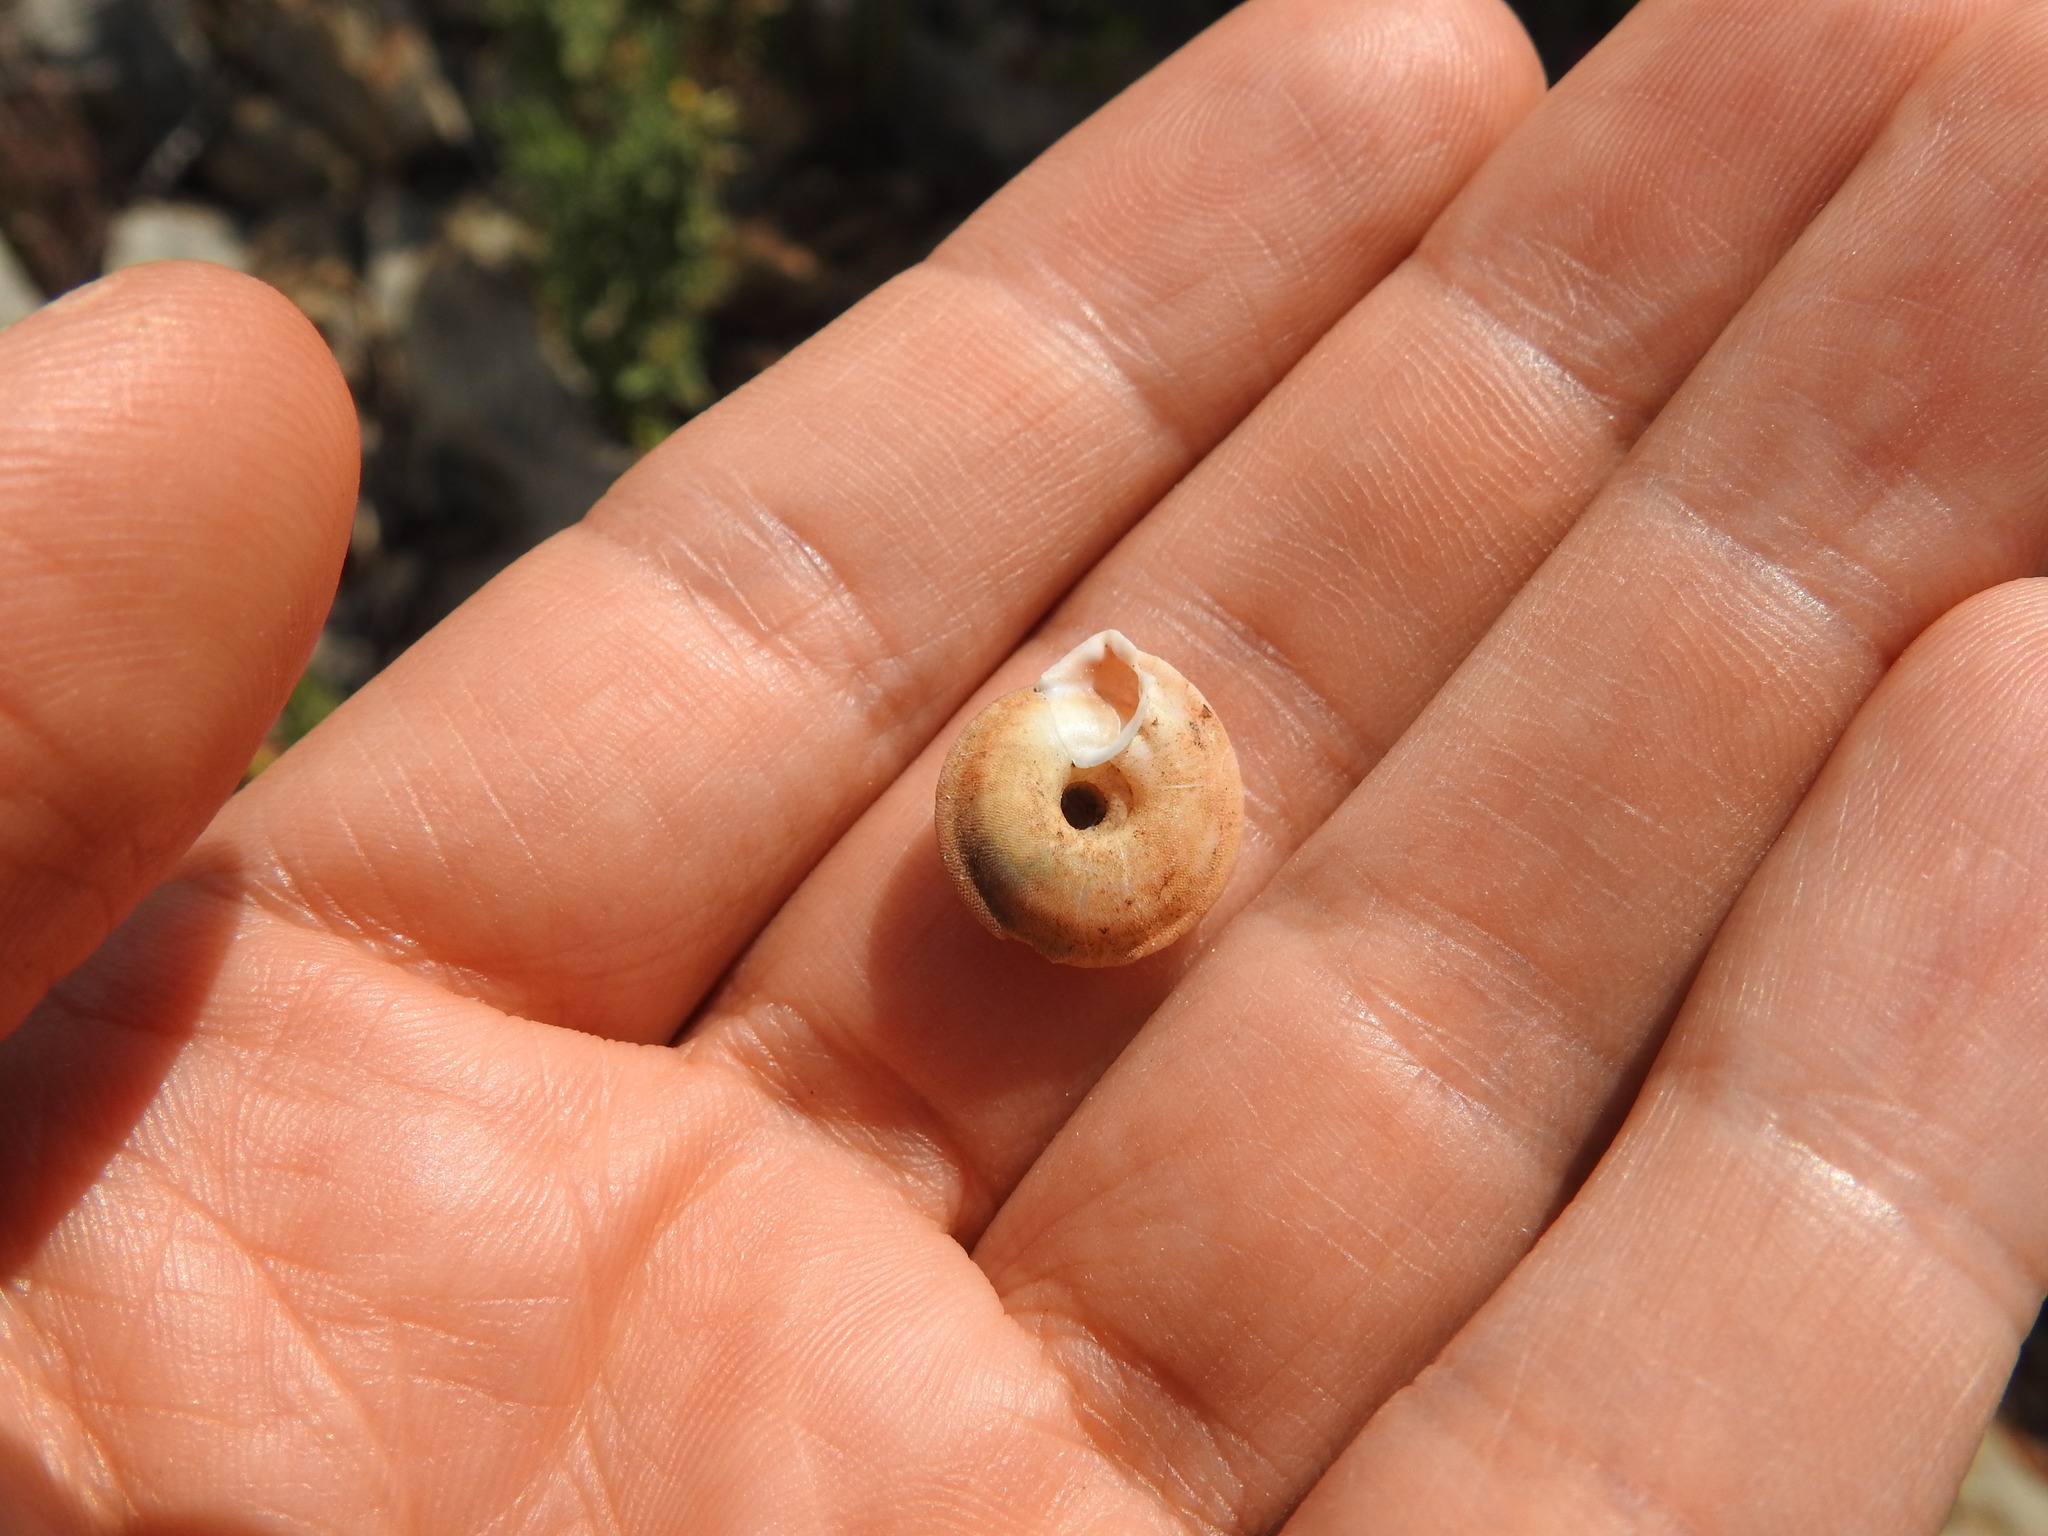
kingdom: Animalia
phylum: Mollusca
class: Gastropoda
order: Stylommatophora
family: Trissexodontidae
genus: Gittenbergeria
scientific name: Gittenbergeria turriplana
